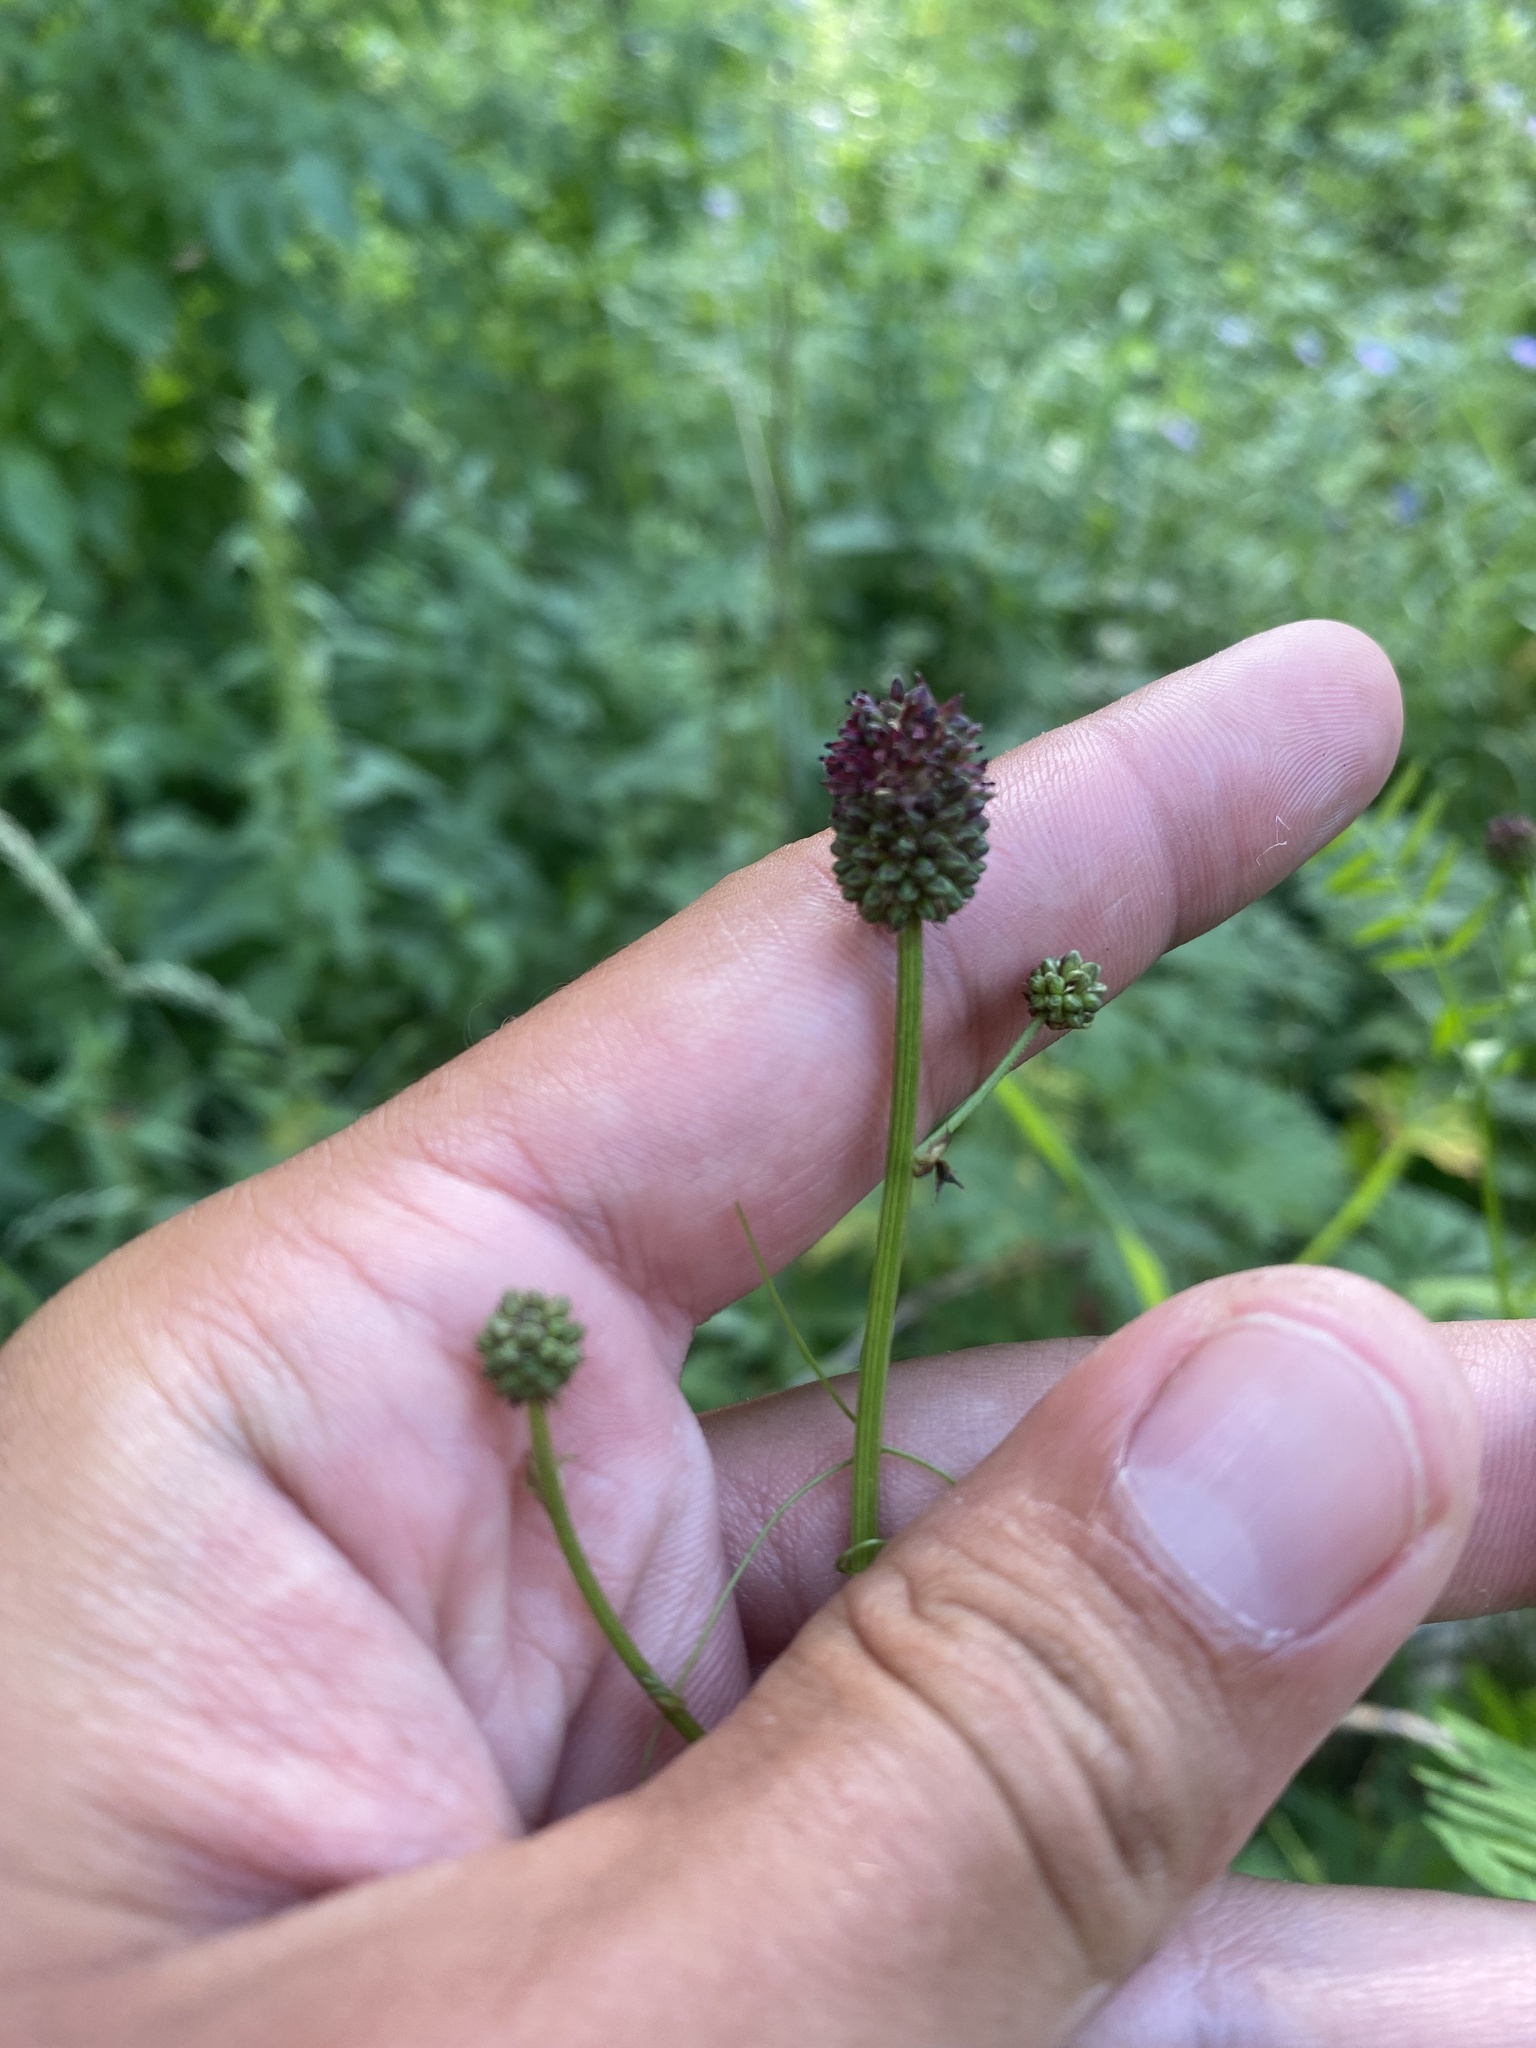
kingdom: Plantae
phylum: Tracheophyta
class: Magnoliopsida
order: Rosales
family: Rosaceae
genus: Sanguisorba
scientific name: Sanguisorba officinalis
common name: Great burnet
